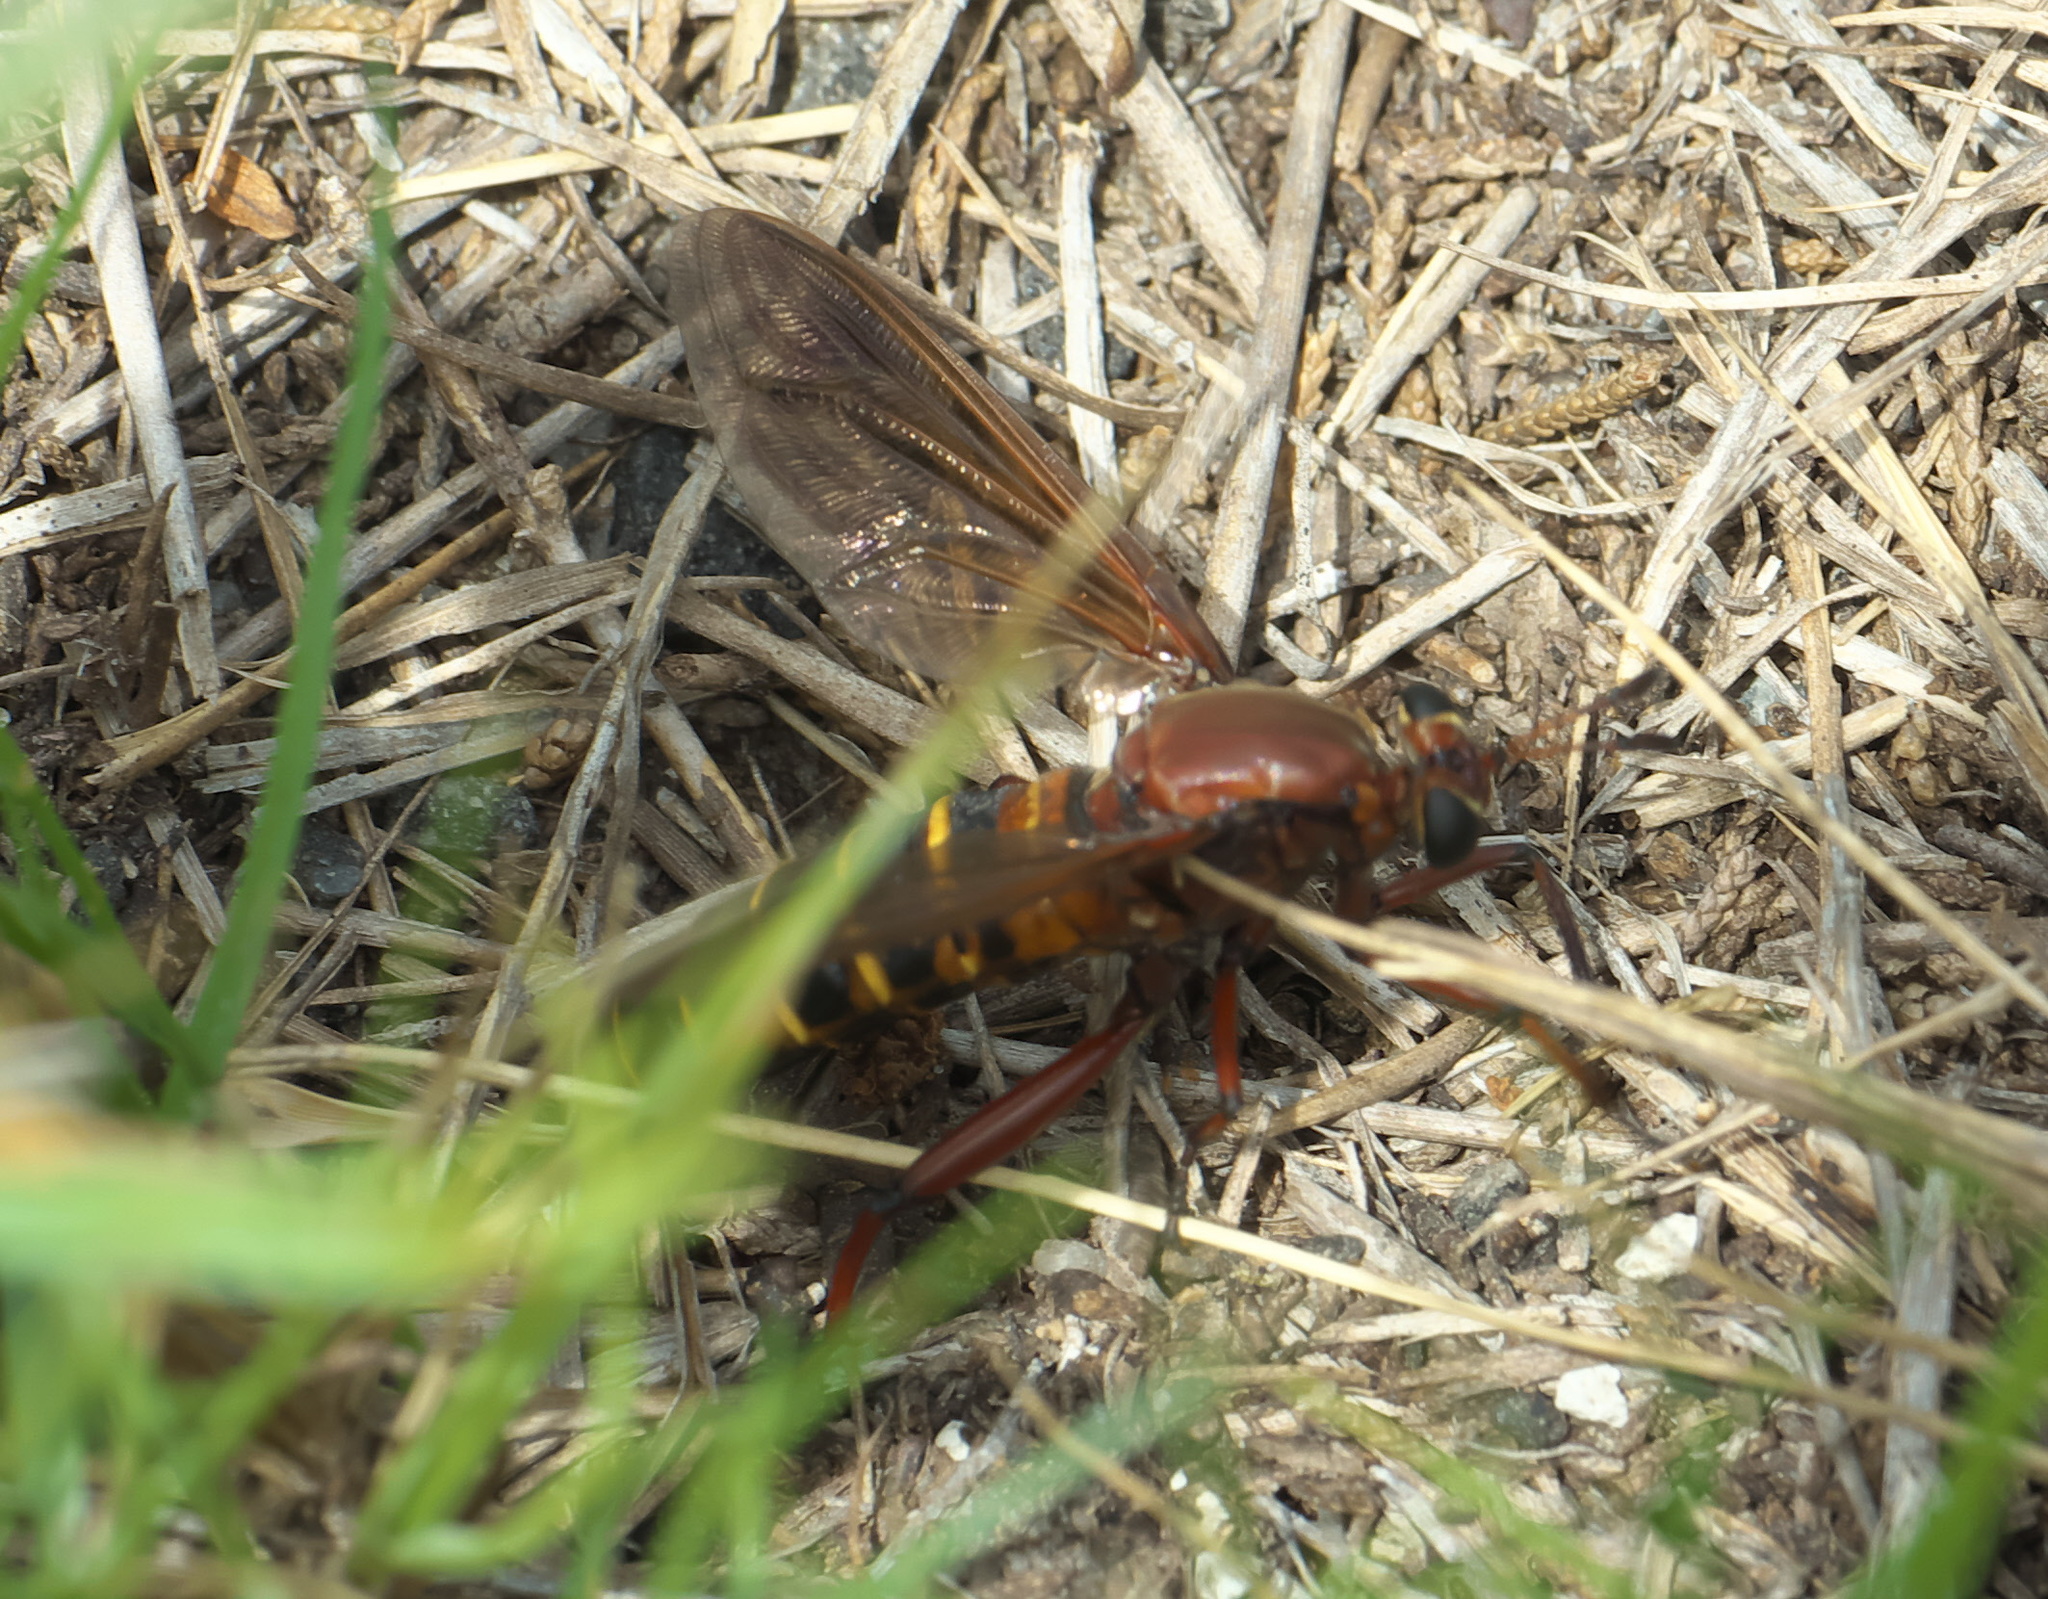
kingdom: Animalia
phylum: Arthropoda
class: Insecta
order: Diptera
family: Mydidae
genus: Mydas
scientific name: Mydas maculiventris
